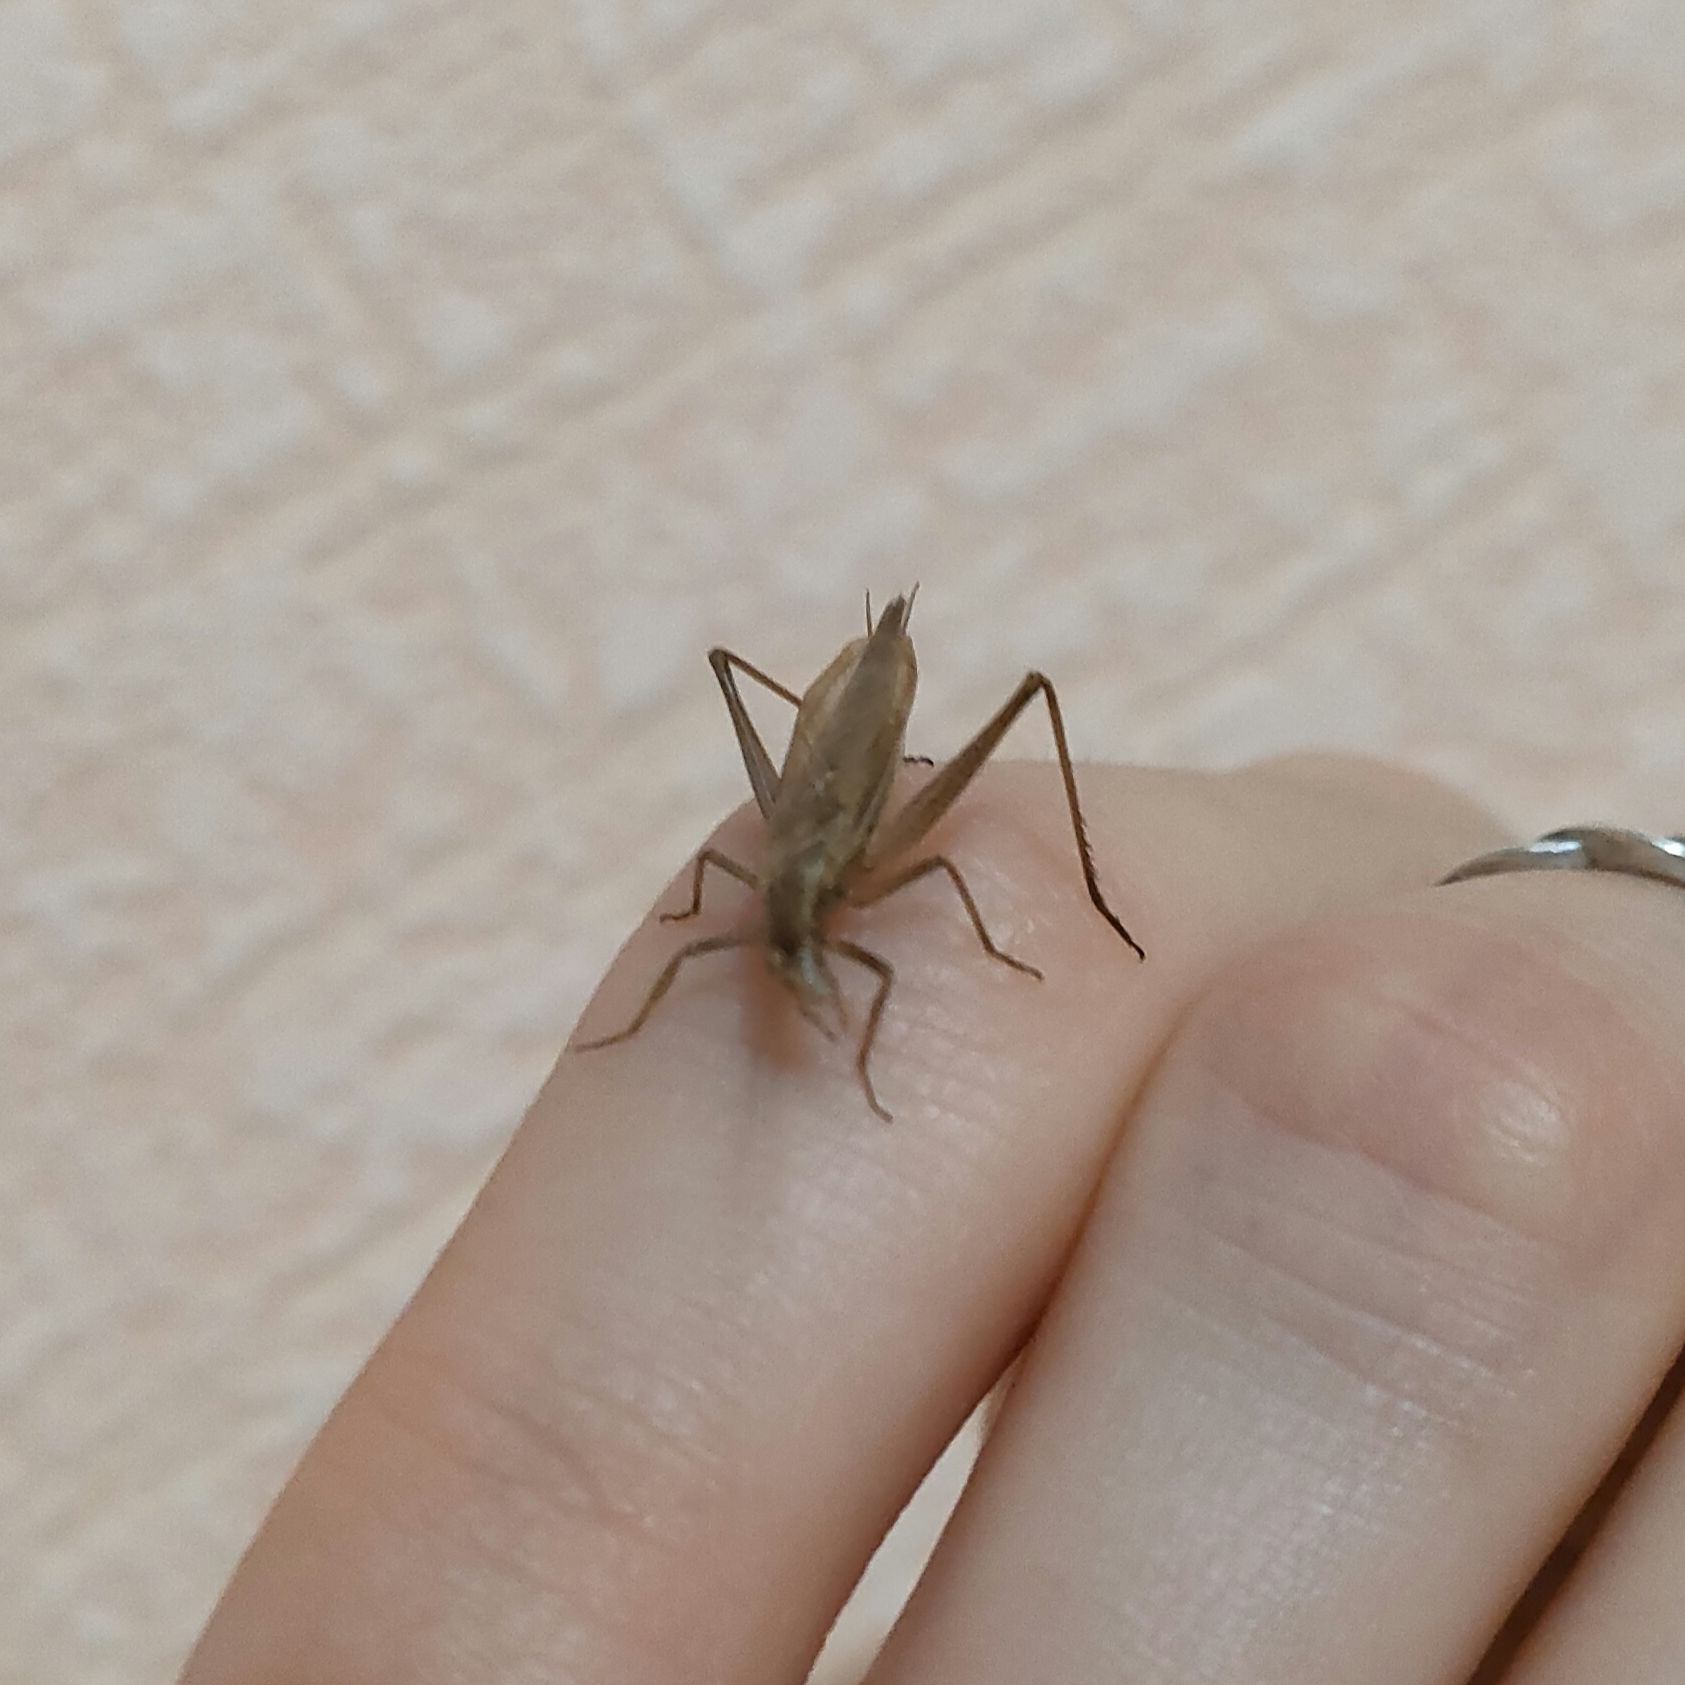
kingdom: Animalia
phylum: Arthropoda
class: Insecta
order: Orthoptera
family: Gryllidae
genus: Oecanthus
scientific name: Oecanthus pellucens
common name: Tree-cricket
